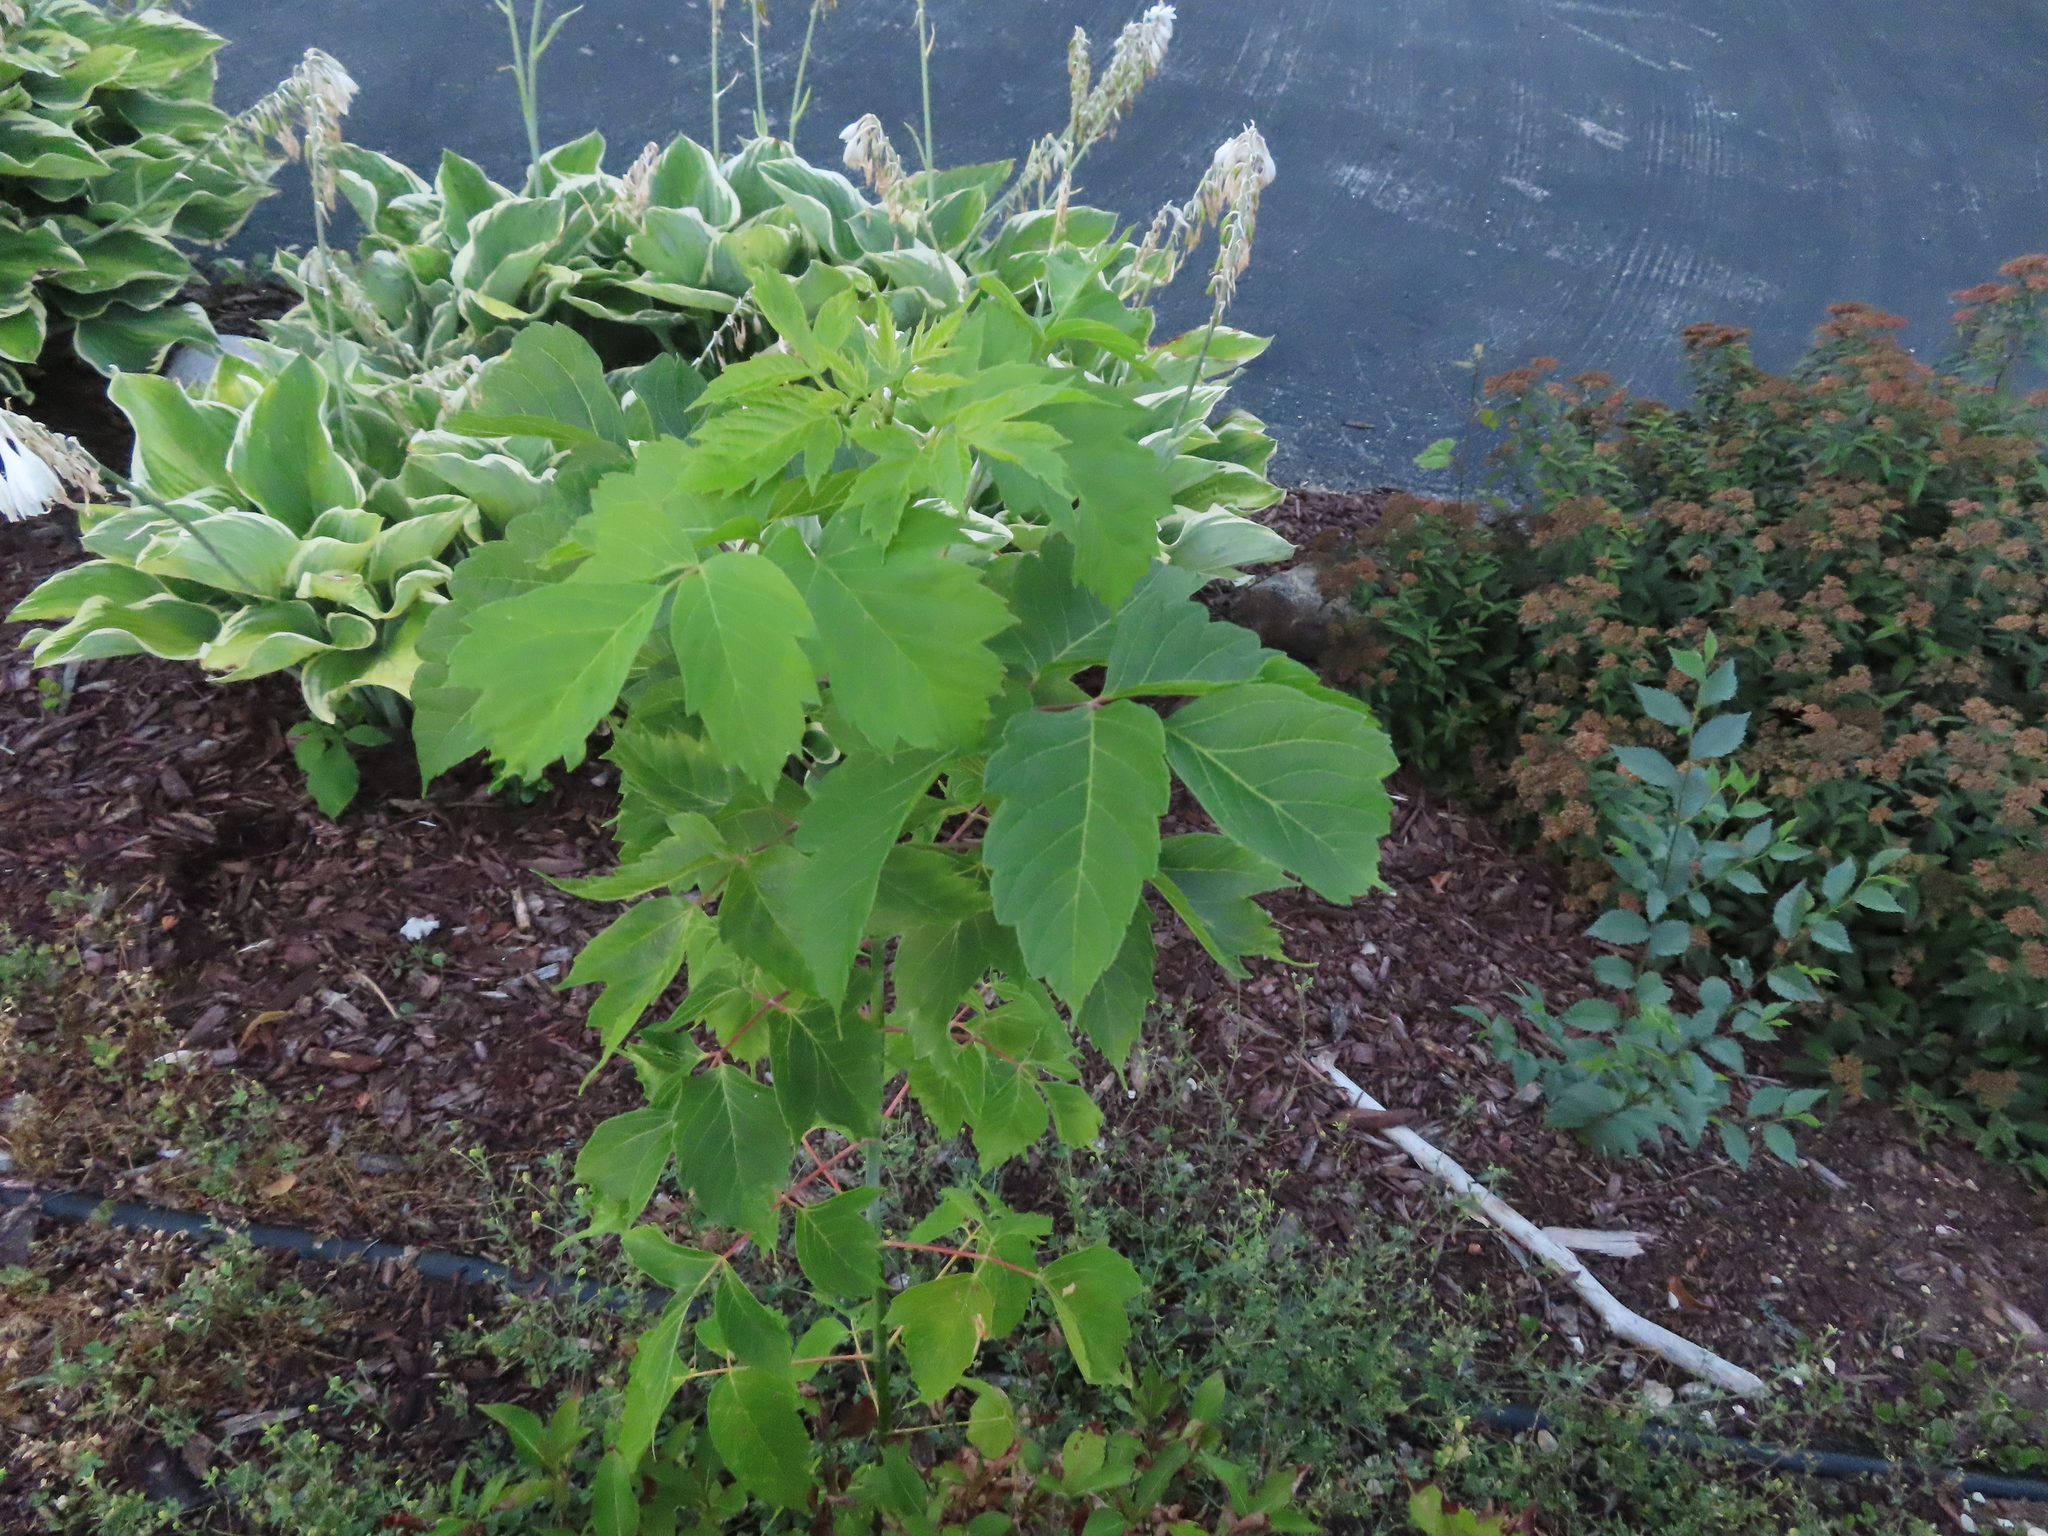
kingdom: Plantae
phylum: Tracheophyta
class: Magnoliopsida
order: Sapindales
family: Sapindaceae
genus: Acer
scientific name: Acer negundo
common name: Ashleaf maple
